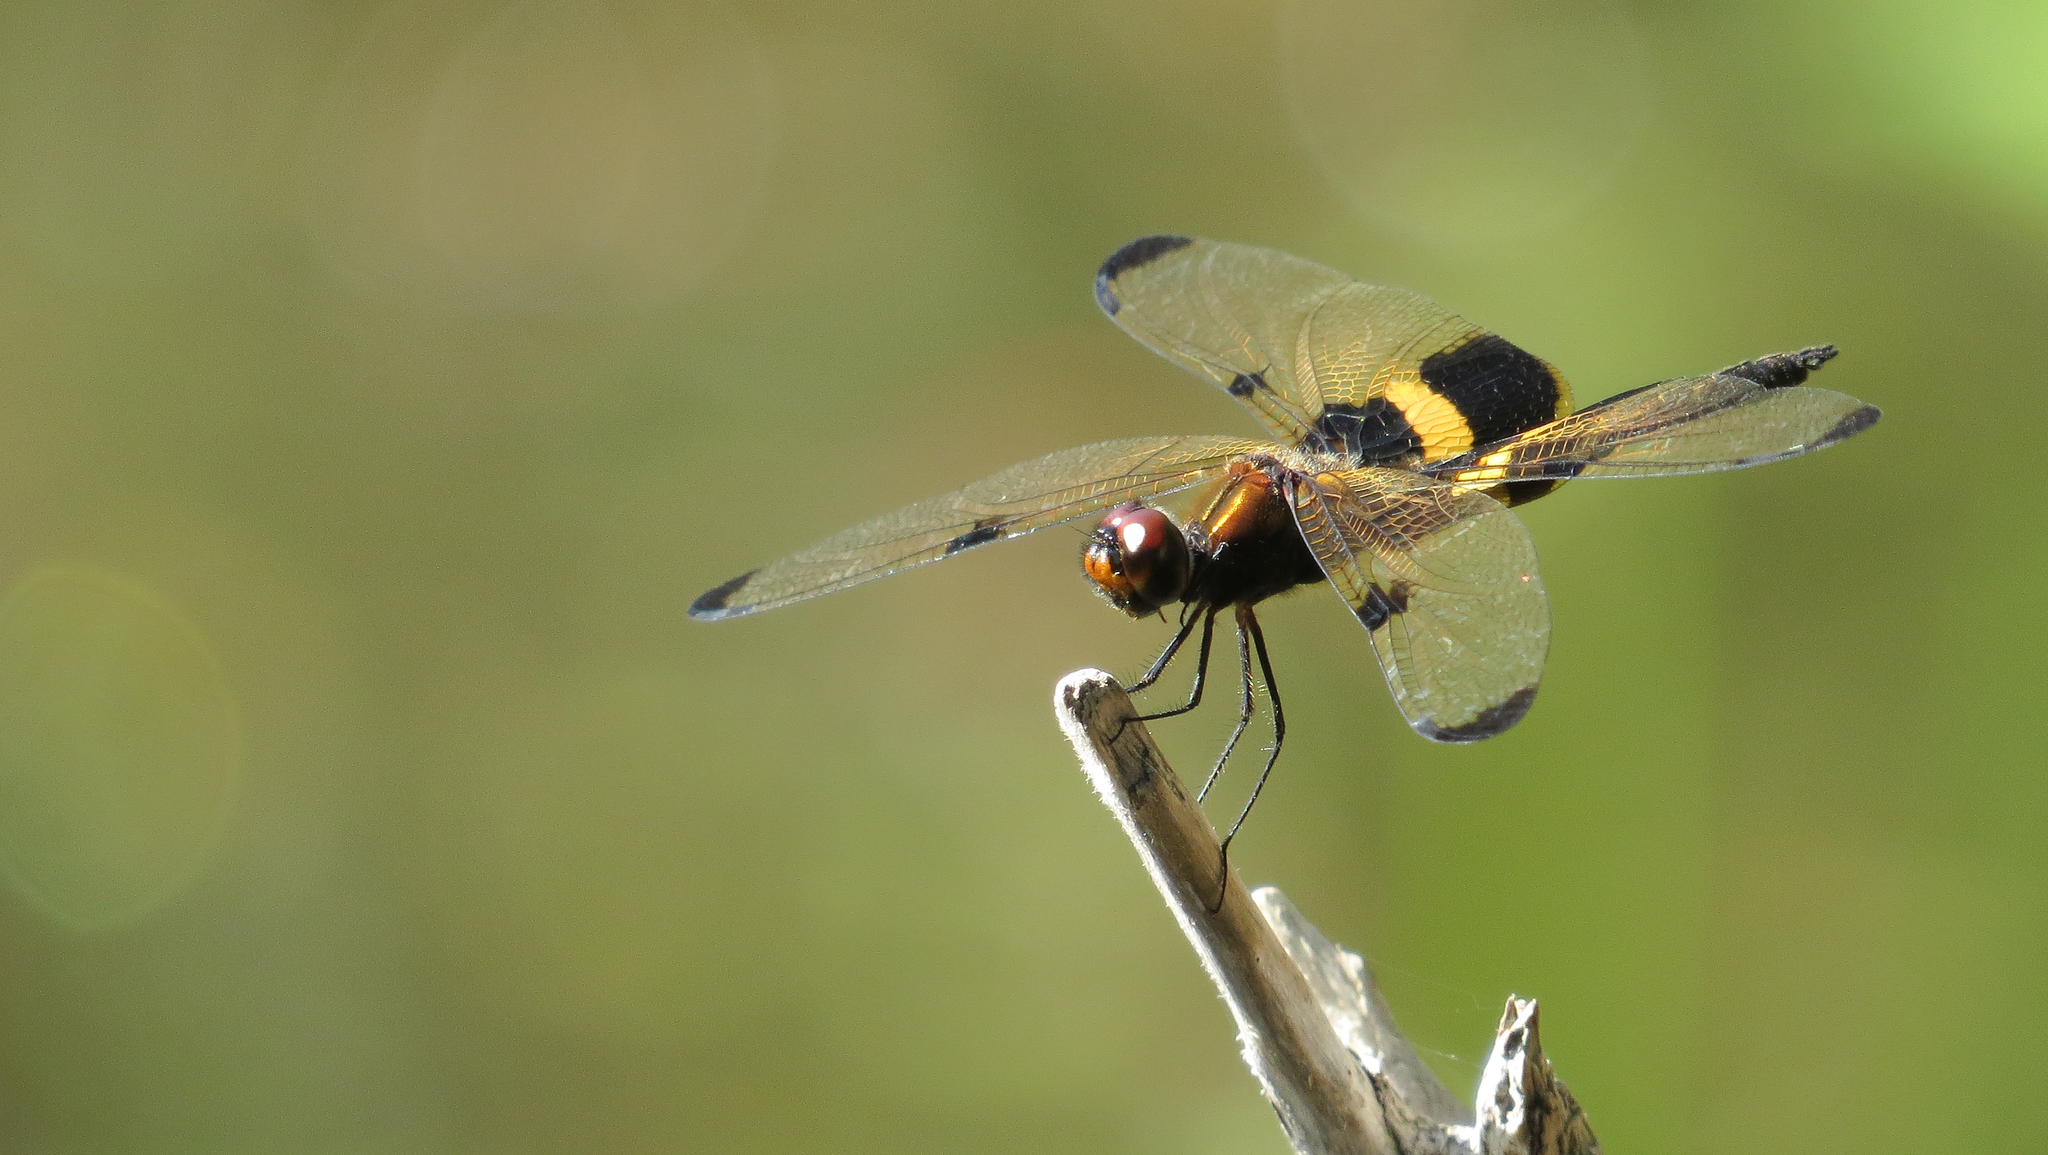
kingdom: Animalia
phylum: Arthropoda
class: Insecta
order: Odonata
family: Libellulidae
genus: Rhyothemis
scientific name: Rhyothemis phyllis
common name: Yellow-barred flutterer
